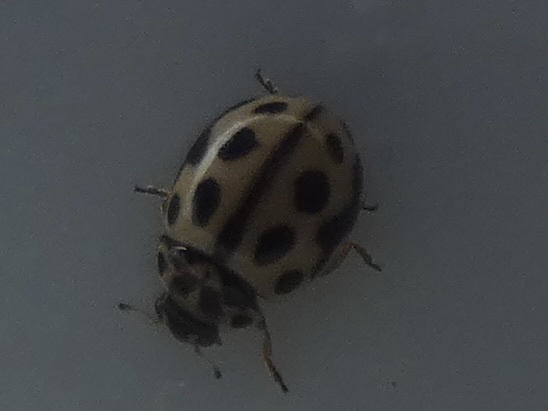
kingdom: Animalia
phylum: Arthropoda
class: Insecta
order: Coleoptera
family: Coccinellidae
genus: Tytthaspis
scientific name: Tytthaspis sedecimpunctata
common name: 16-spot ladybird
